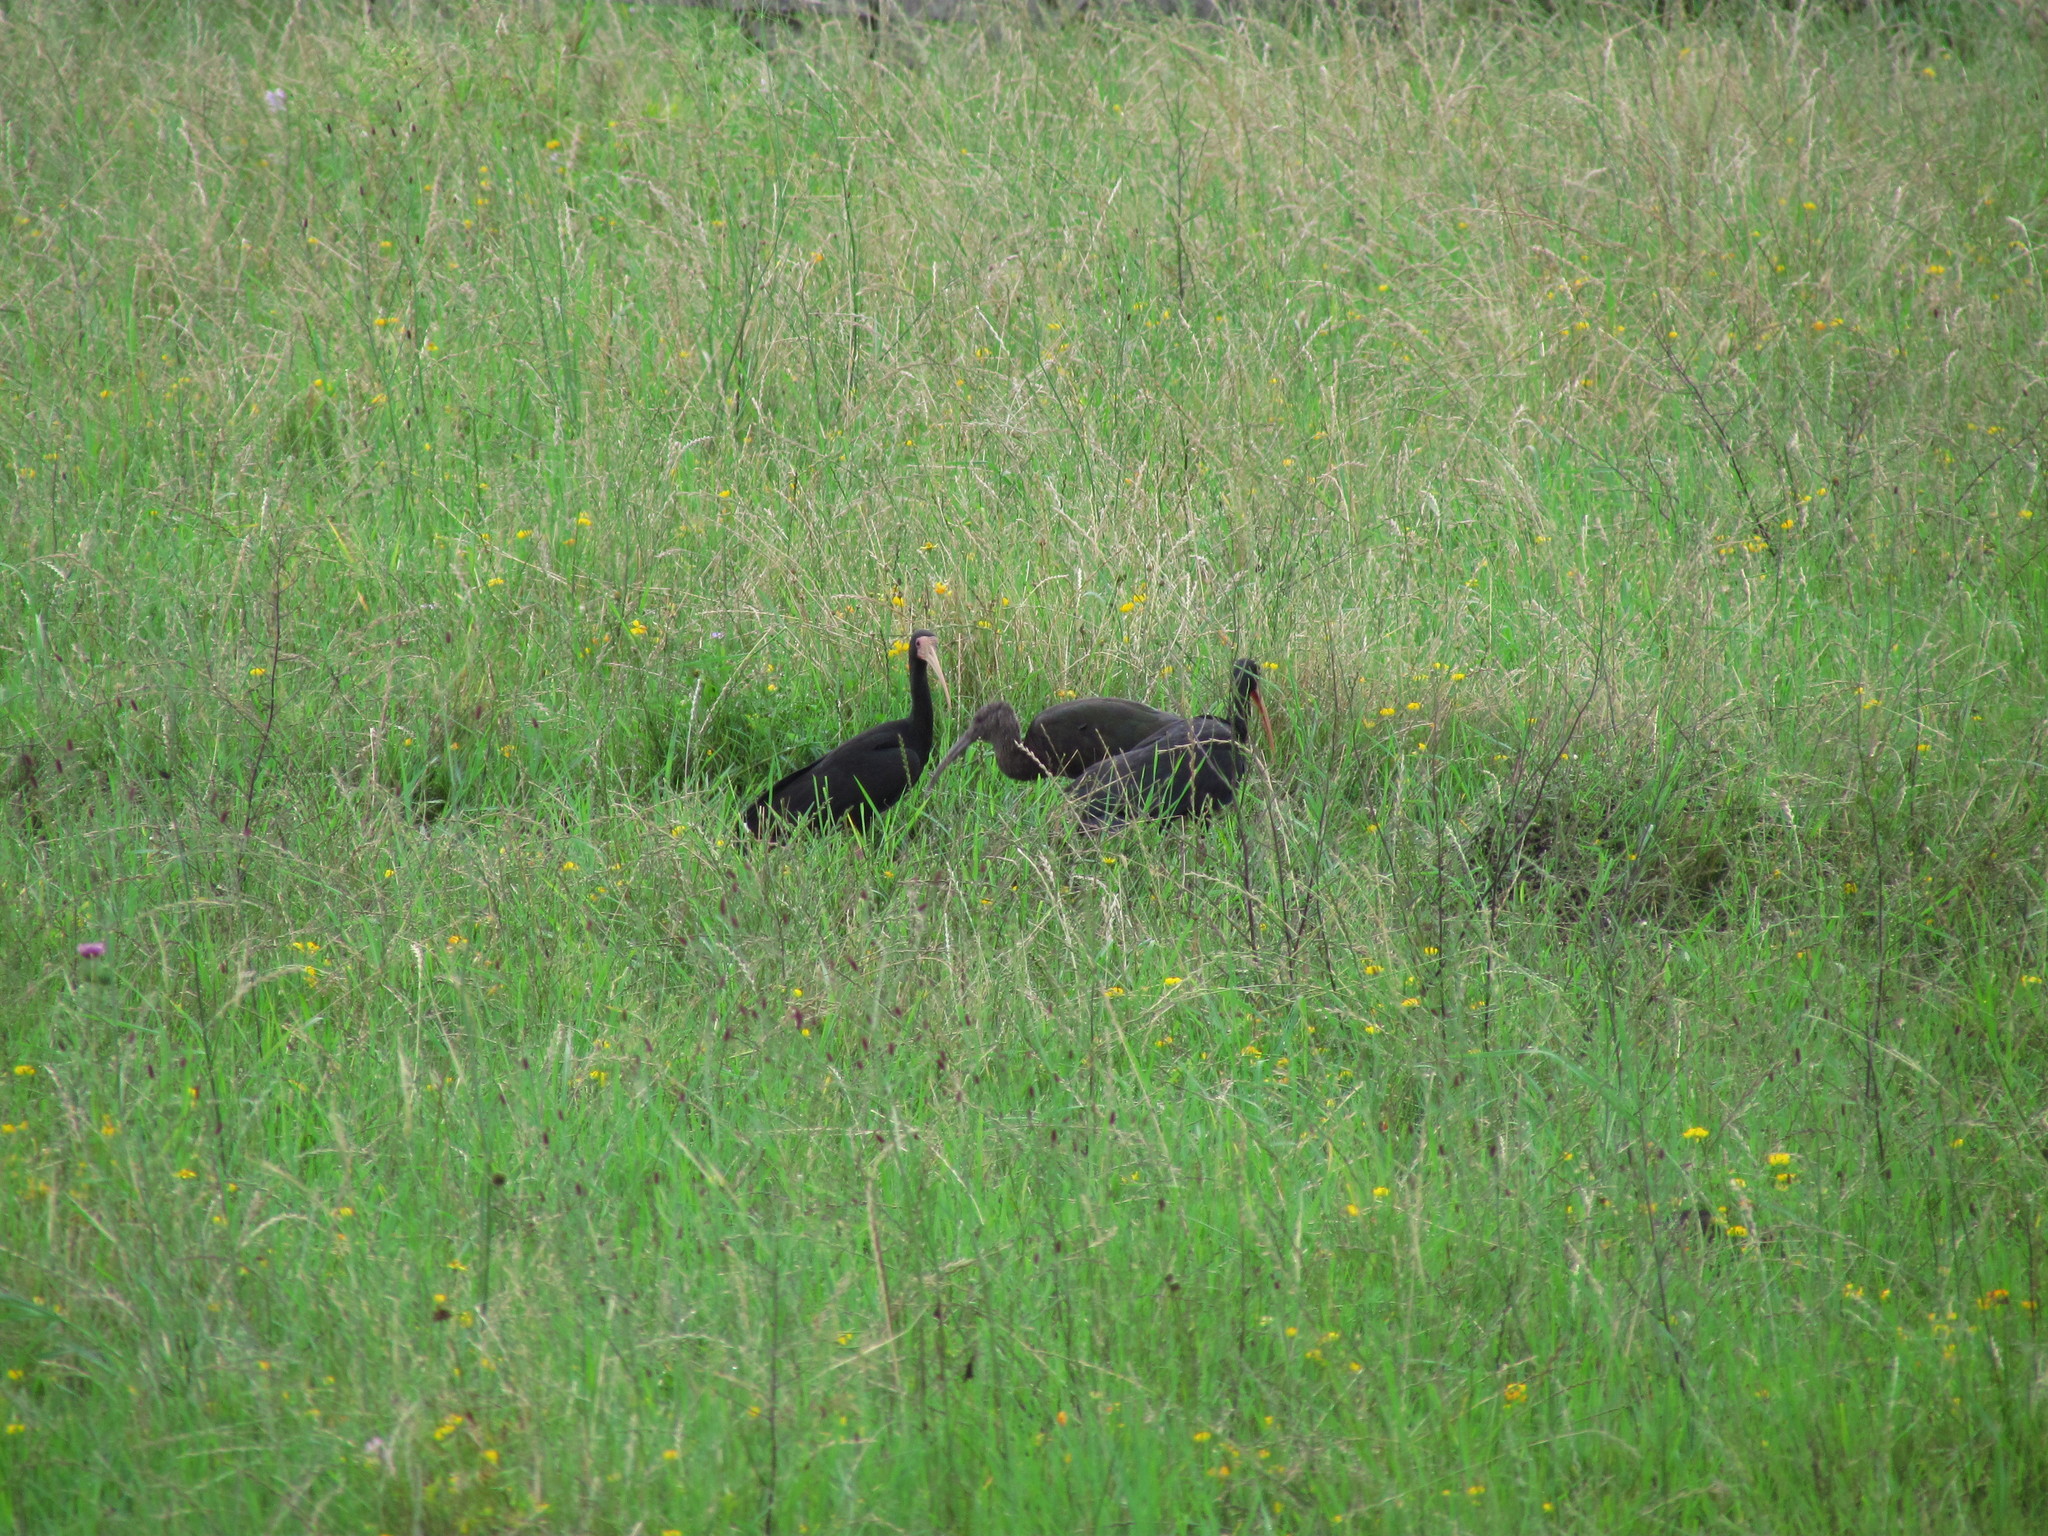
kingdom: Animalia
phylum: Chordata
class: Aves
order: Pelecaniformes
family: Threskiornithidae
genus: Plegadis
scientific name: Plegadis chihi
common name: White-faced ibis
